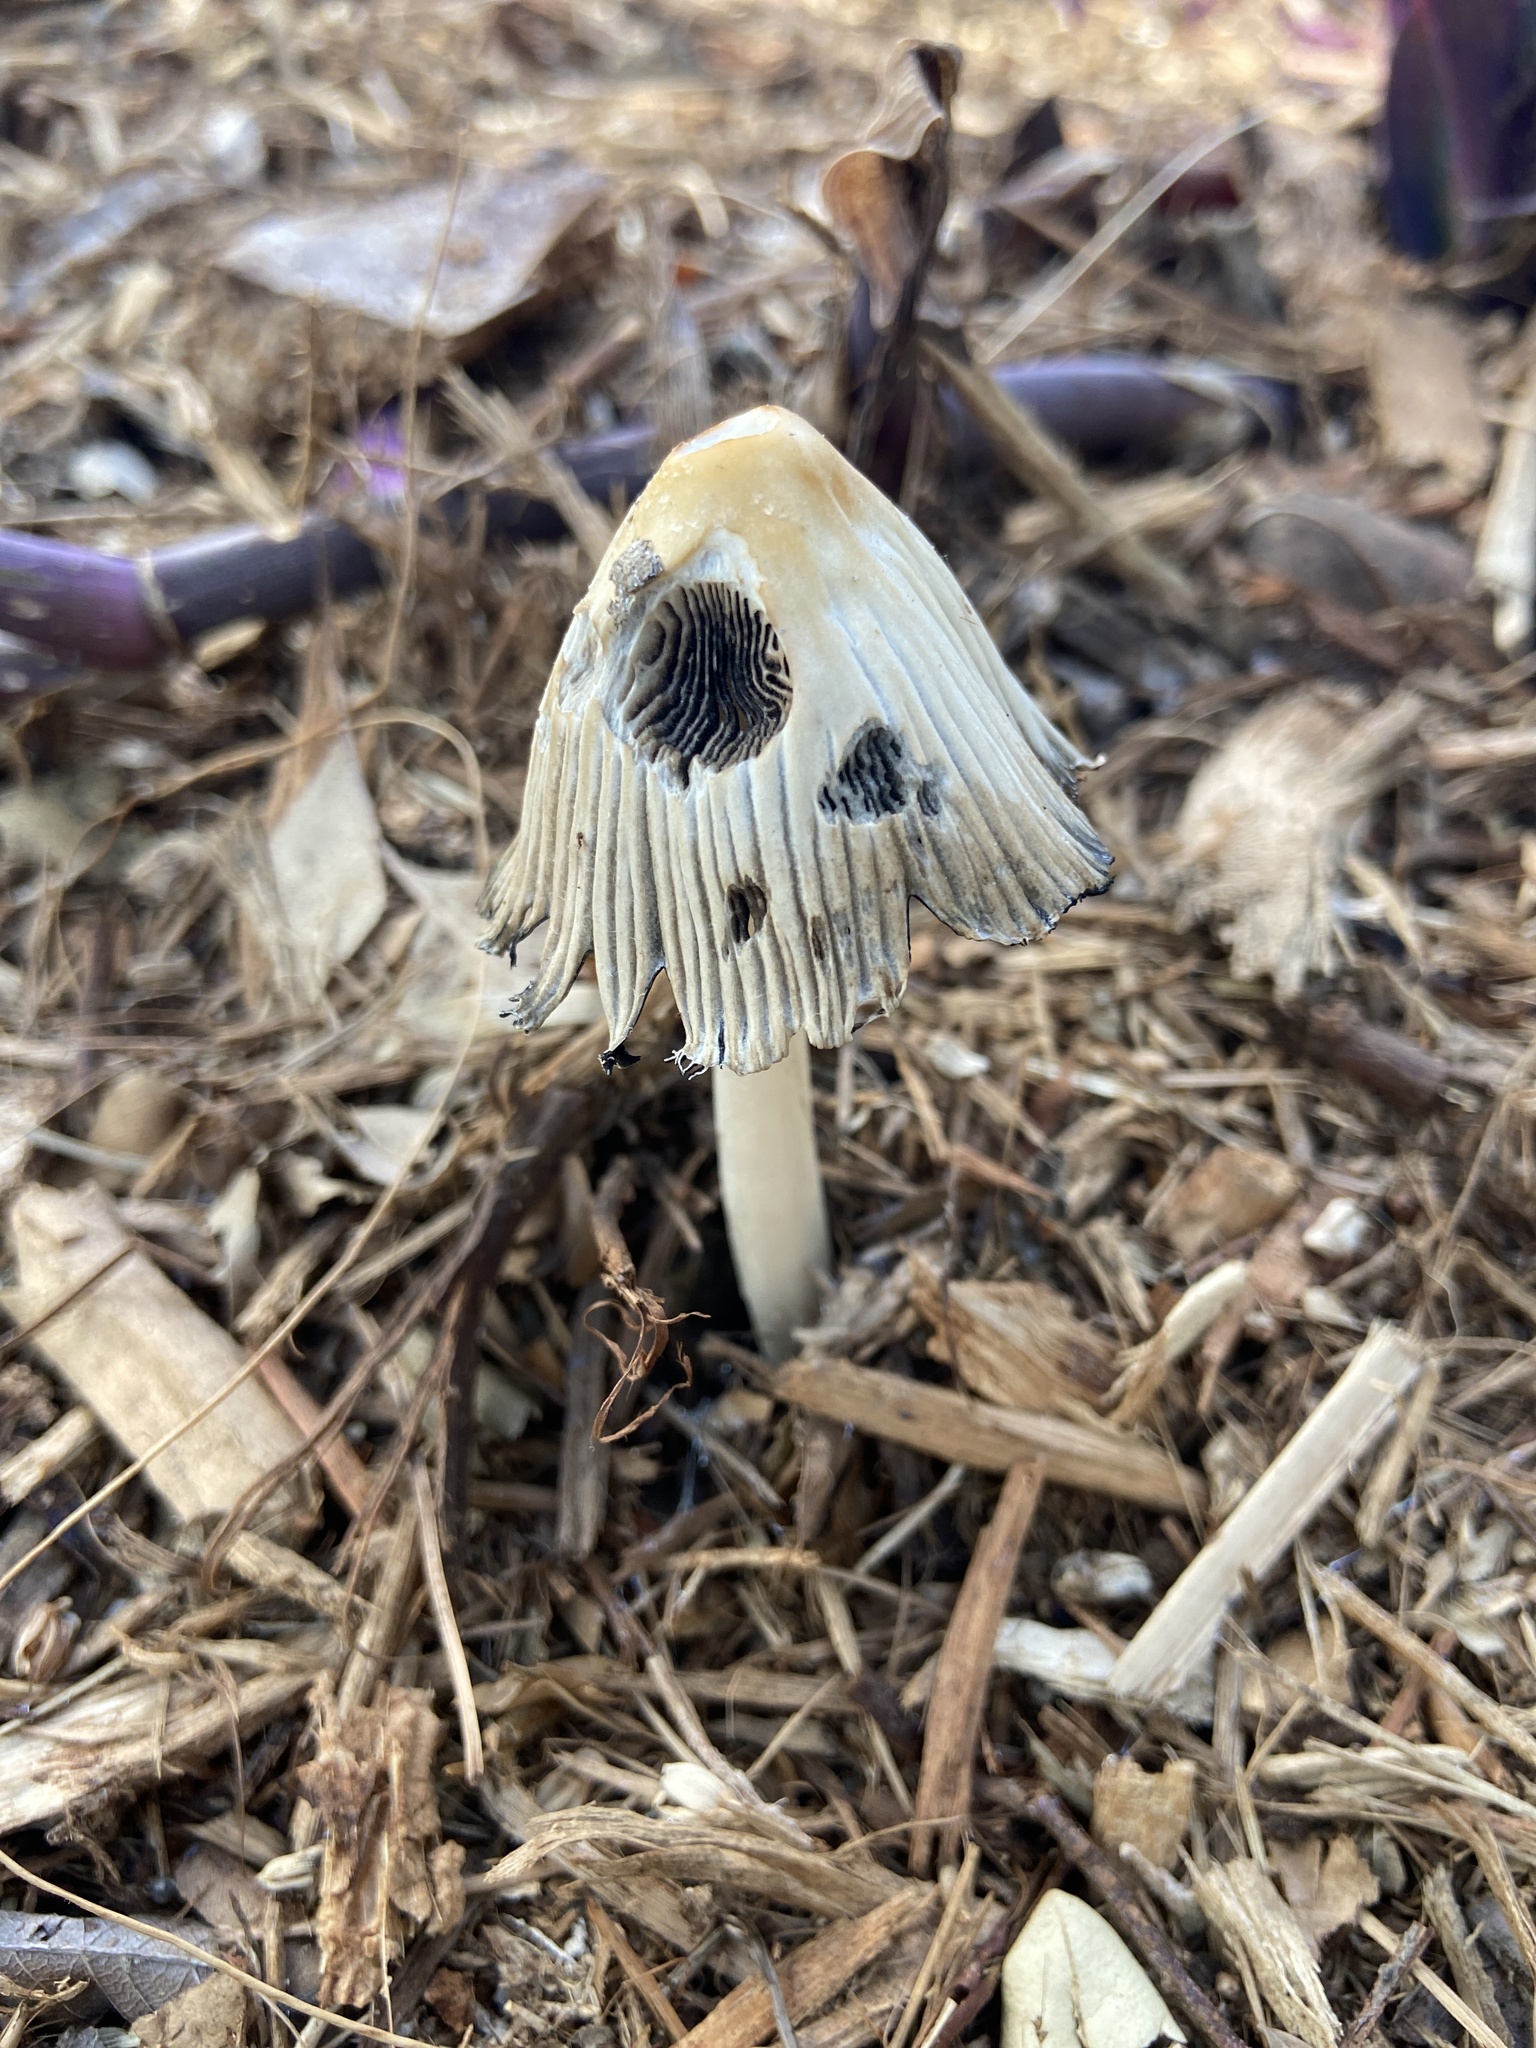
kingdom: Fungi
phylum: Basidiomycota
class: Agaricomycetes
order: Agaricales
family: Psathyrellaceae
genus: Coprinellus
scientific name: Coprinellus flocculosus
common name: Flocculose inkcap
